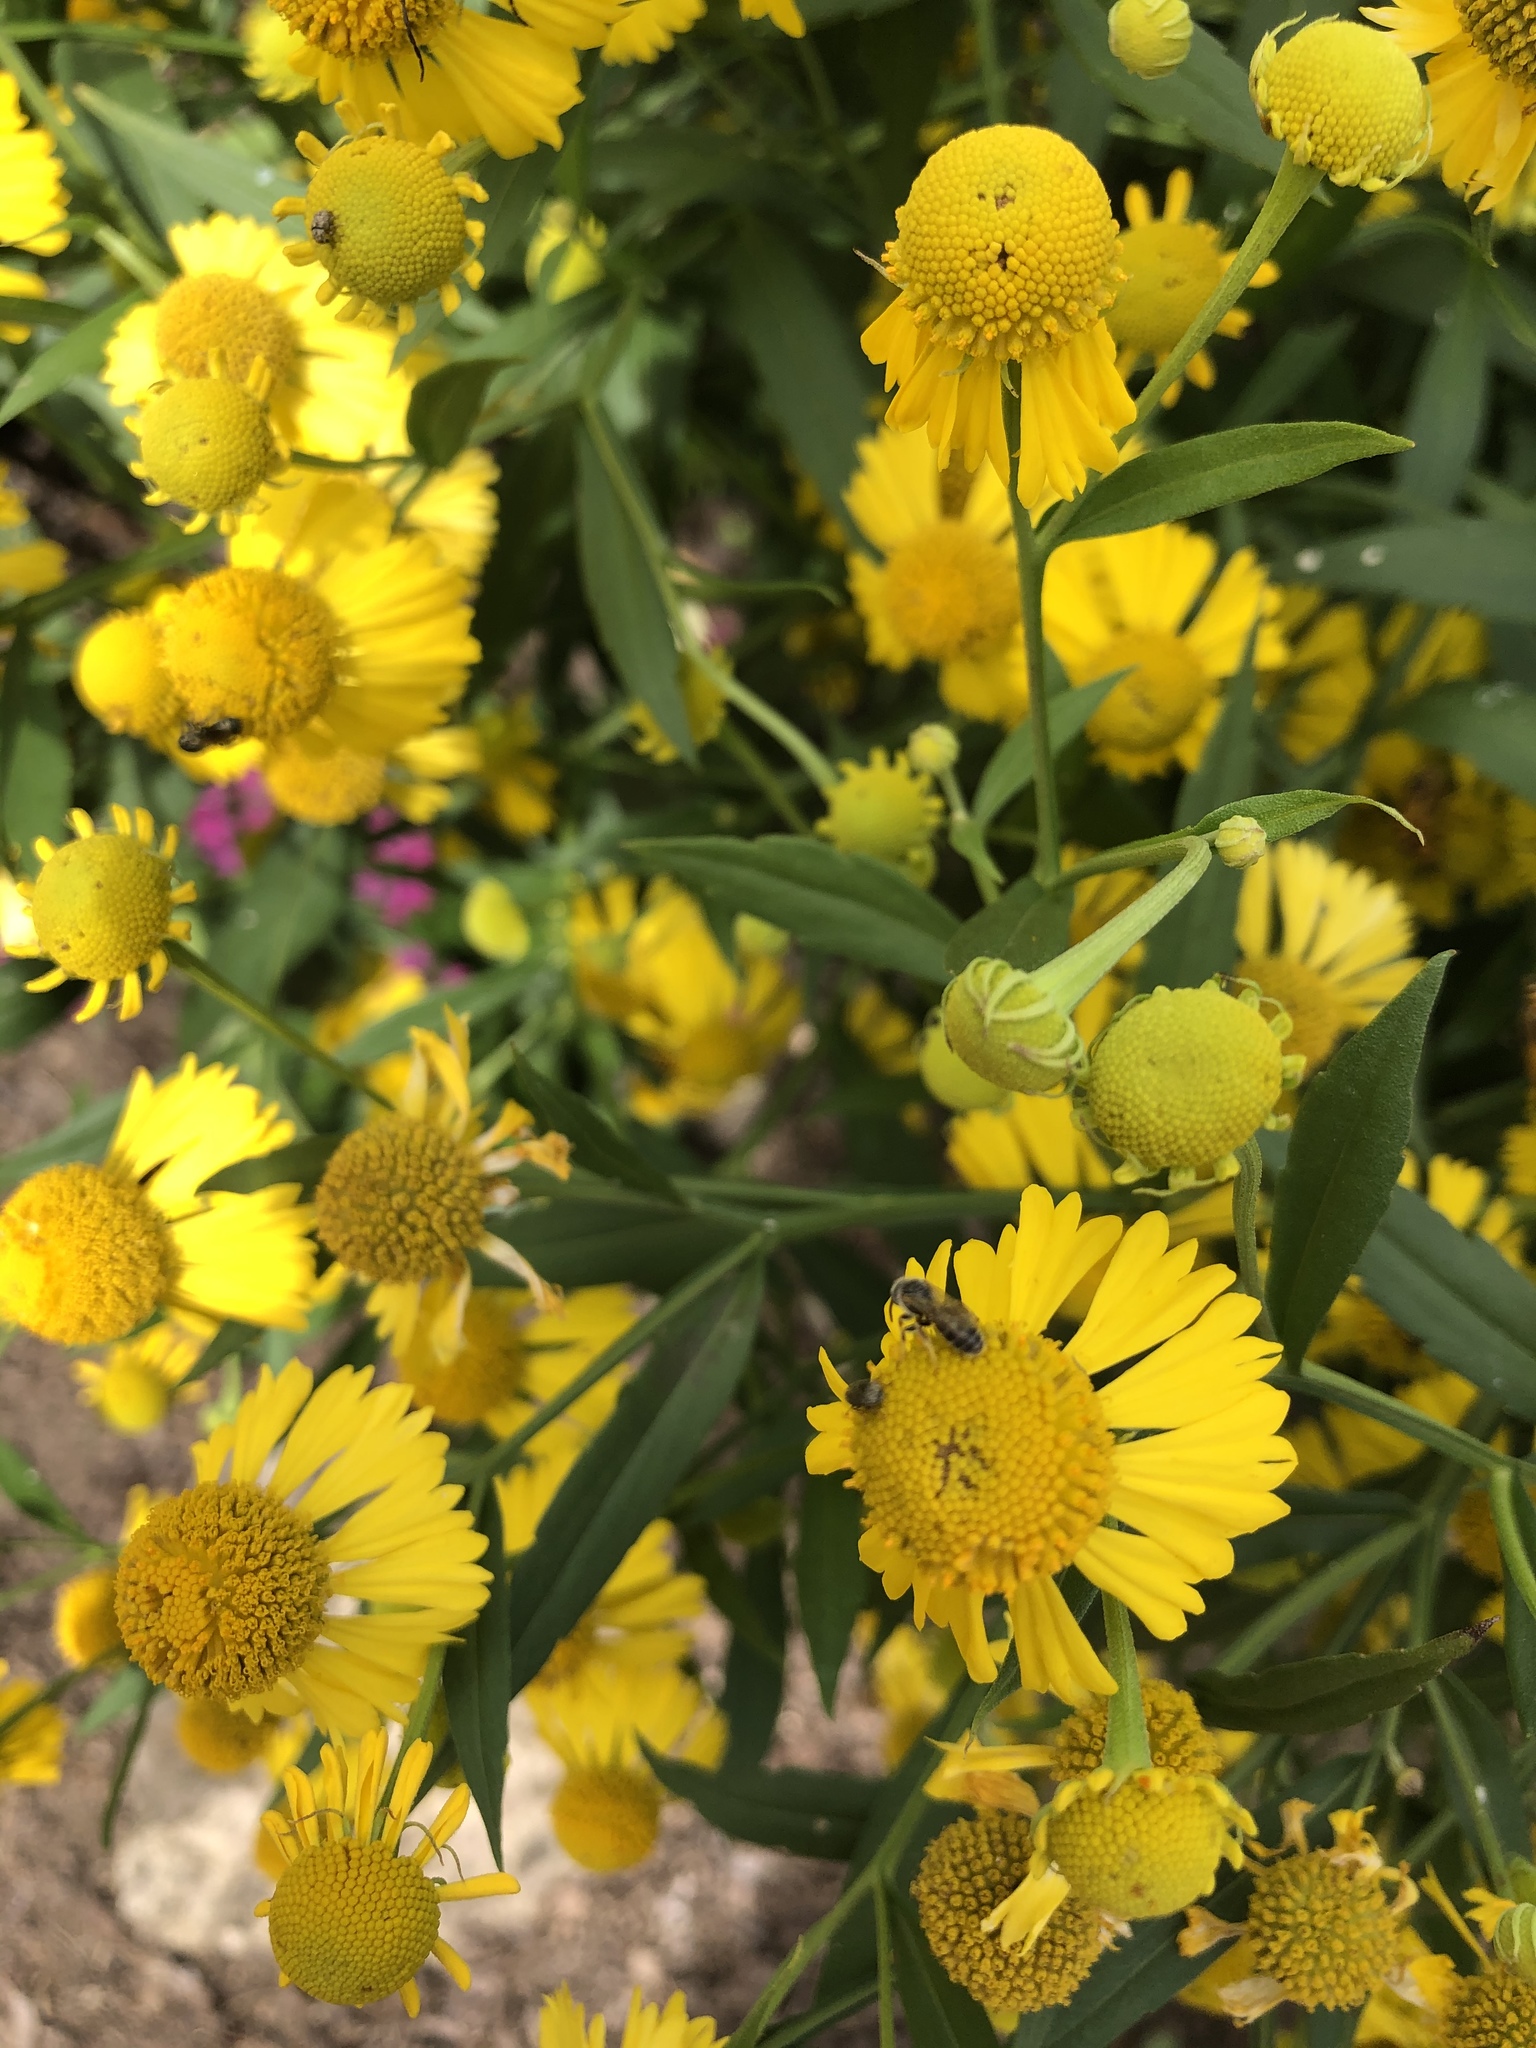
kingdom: Plantae
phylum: Tracheophyta
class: Magnoliopsida
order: Asterales
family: Asteraceae
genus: Helenium
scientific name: Helenium autumnale
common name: Sneezeweed
